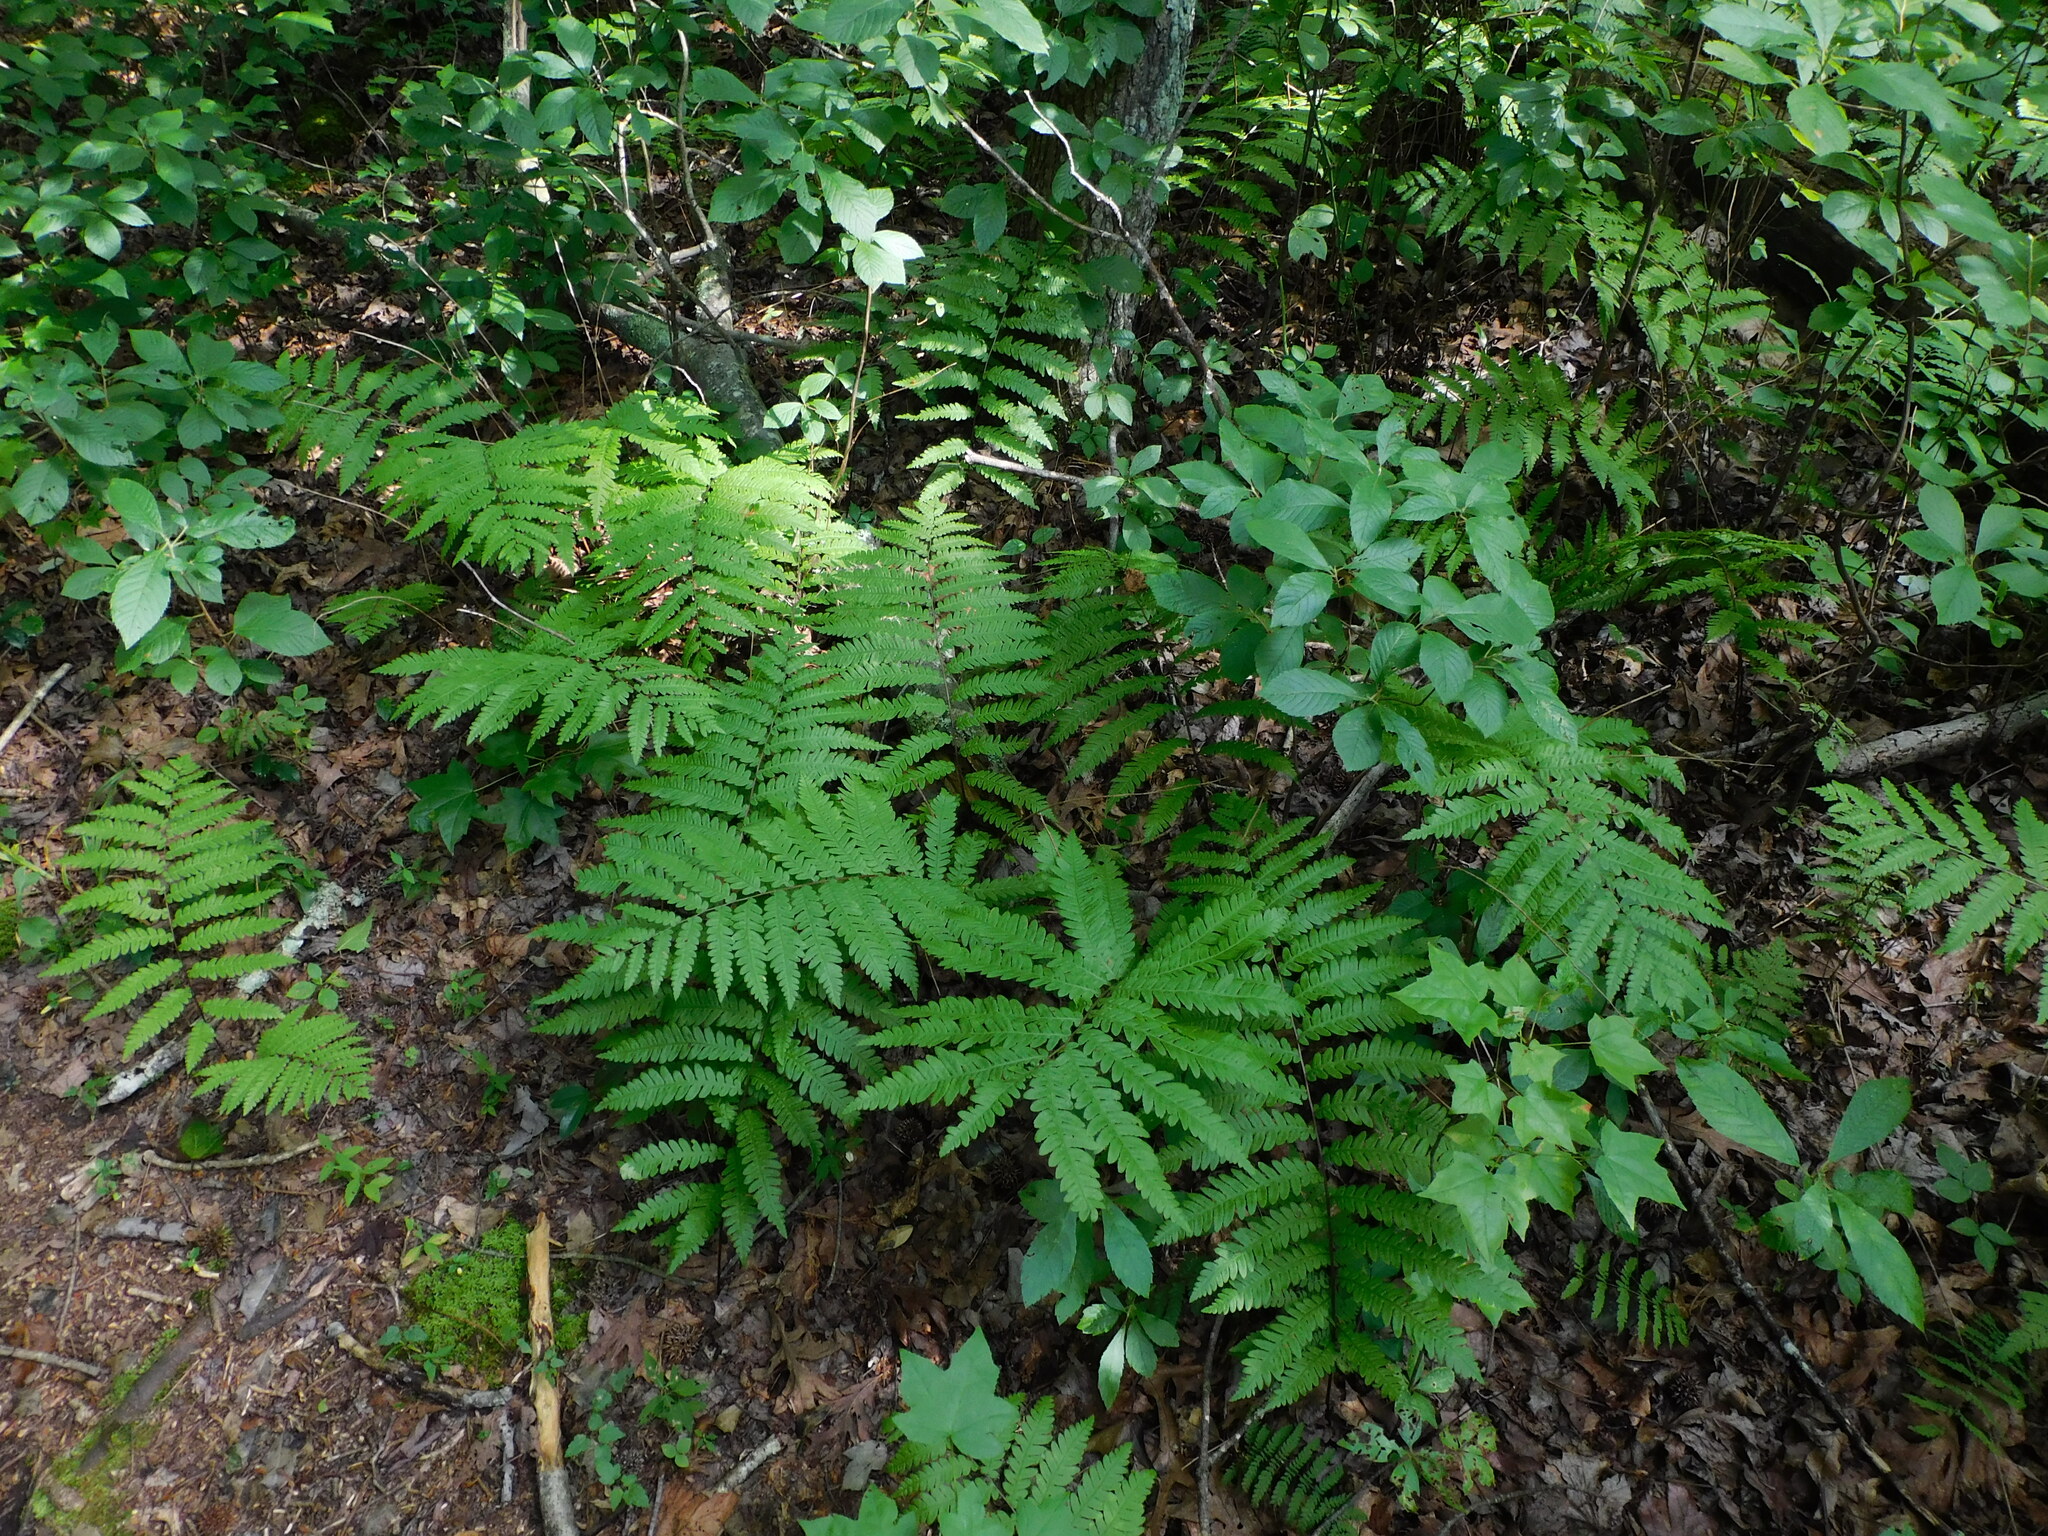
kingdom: Plantae
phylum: Tracheophyta
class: Polypodiopsida
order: Polypodiales
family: Blechnaceae
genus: Anchistea
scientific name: Anchistea virginica
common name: Virginia chain fern
